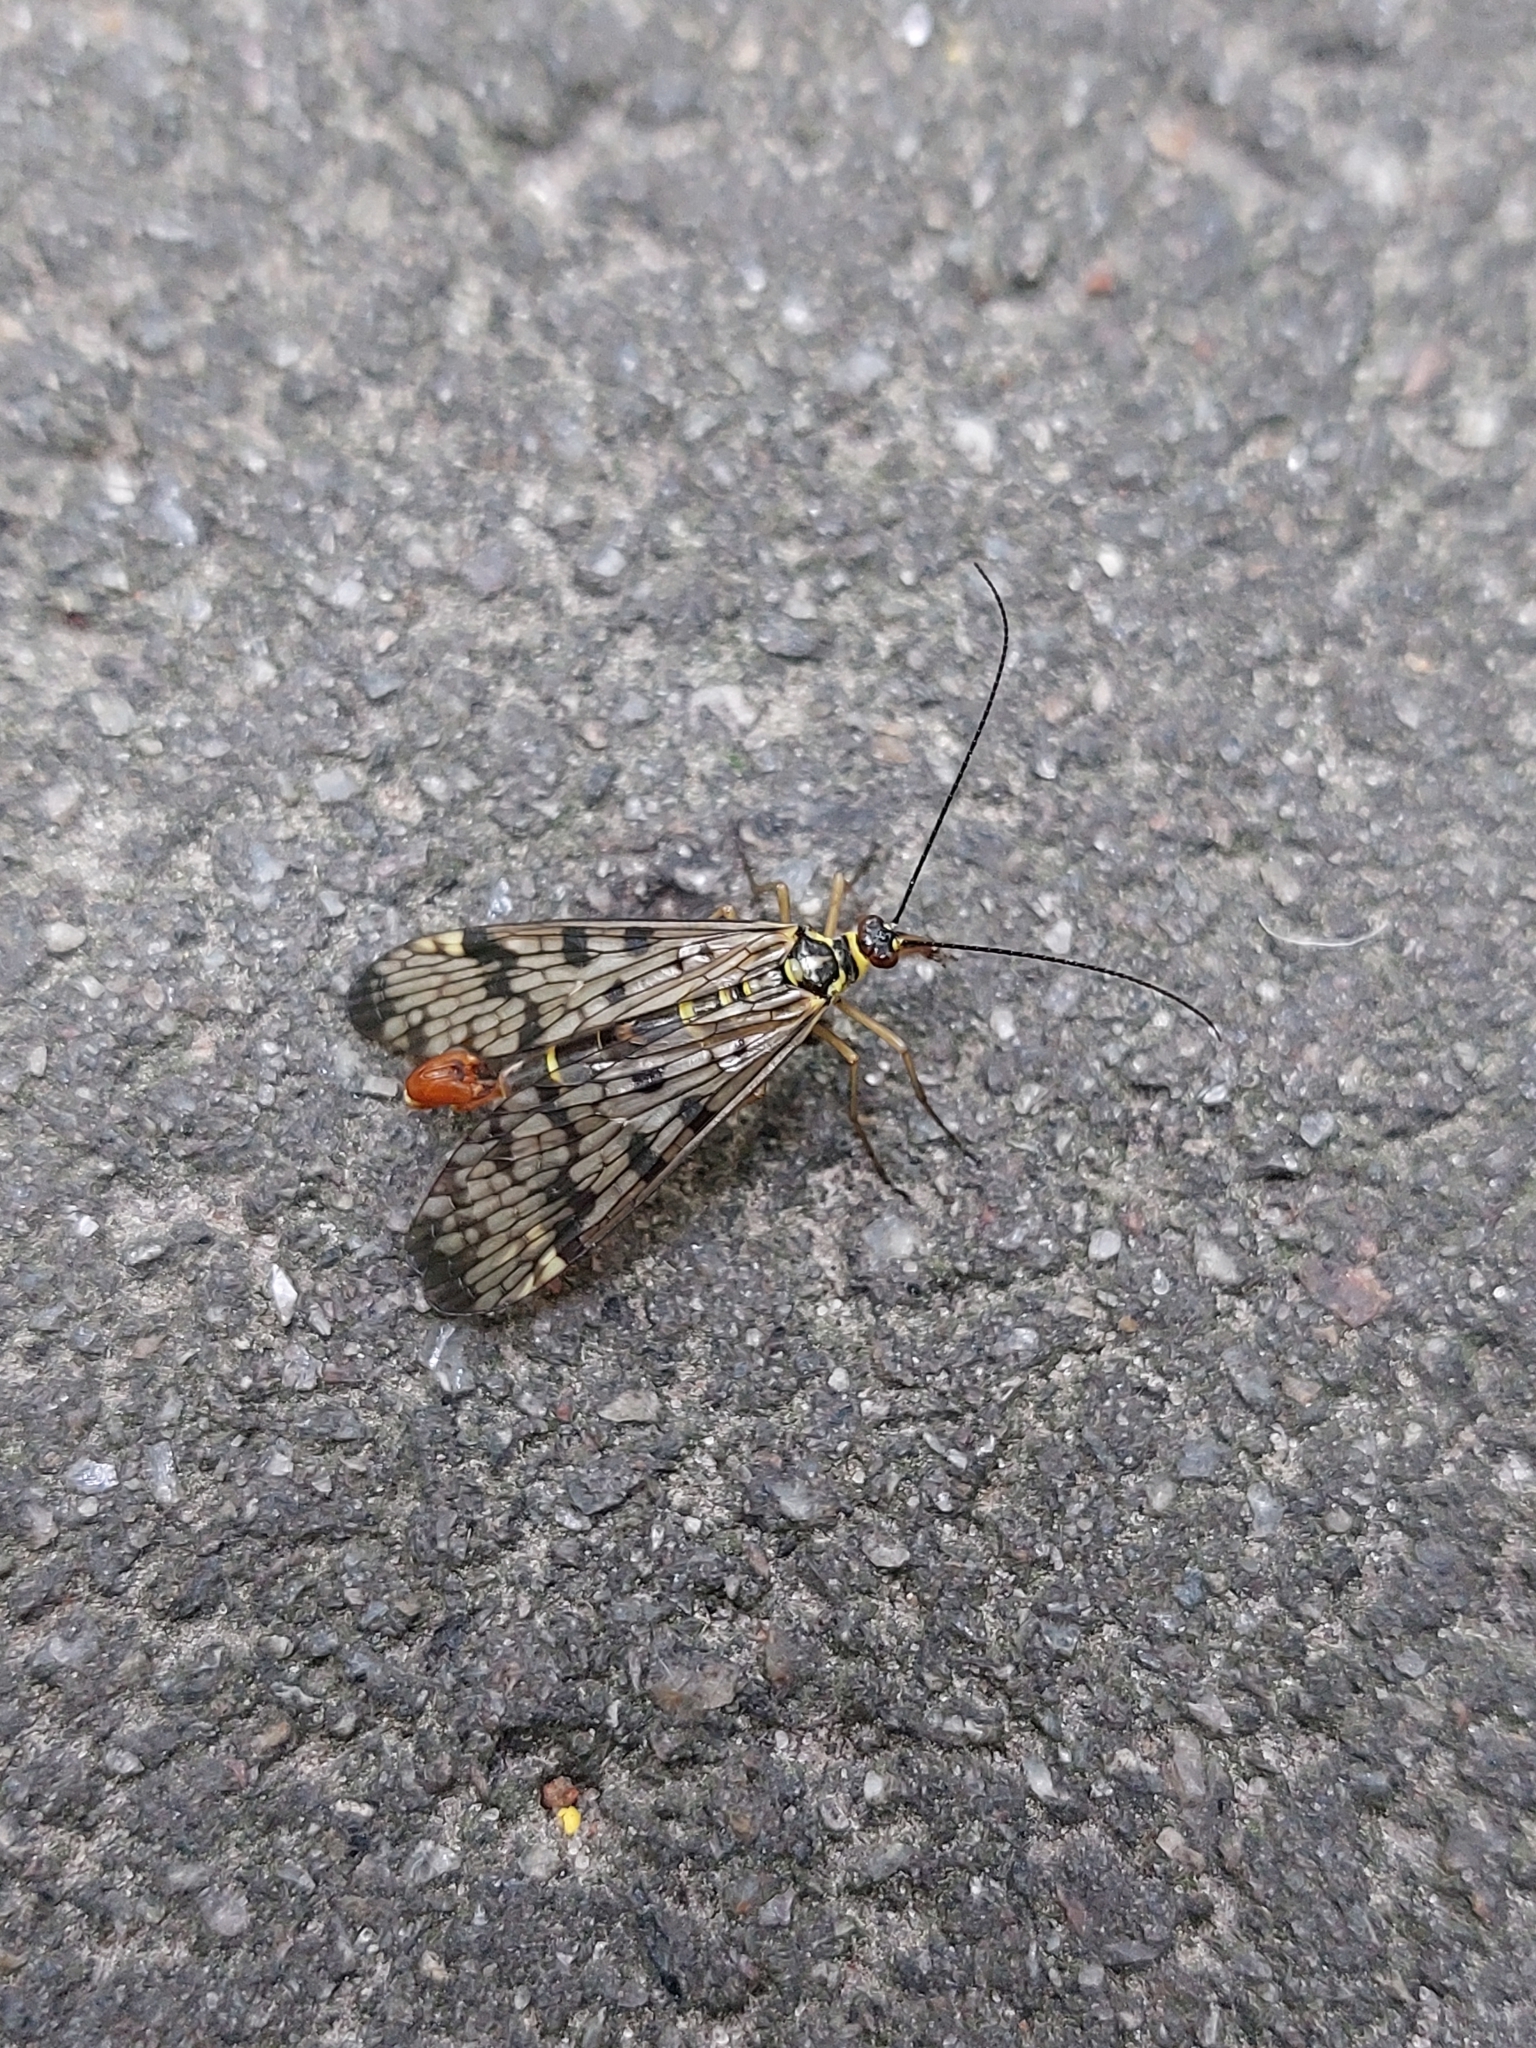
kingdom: Animalia
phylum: Arthropoda
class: Insecta
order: Mecoptera
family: Panorpidae
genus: Panorpa
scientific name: Panorpa communis
